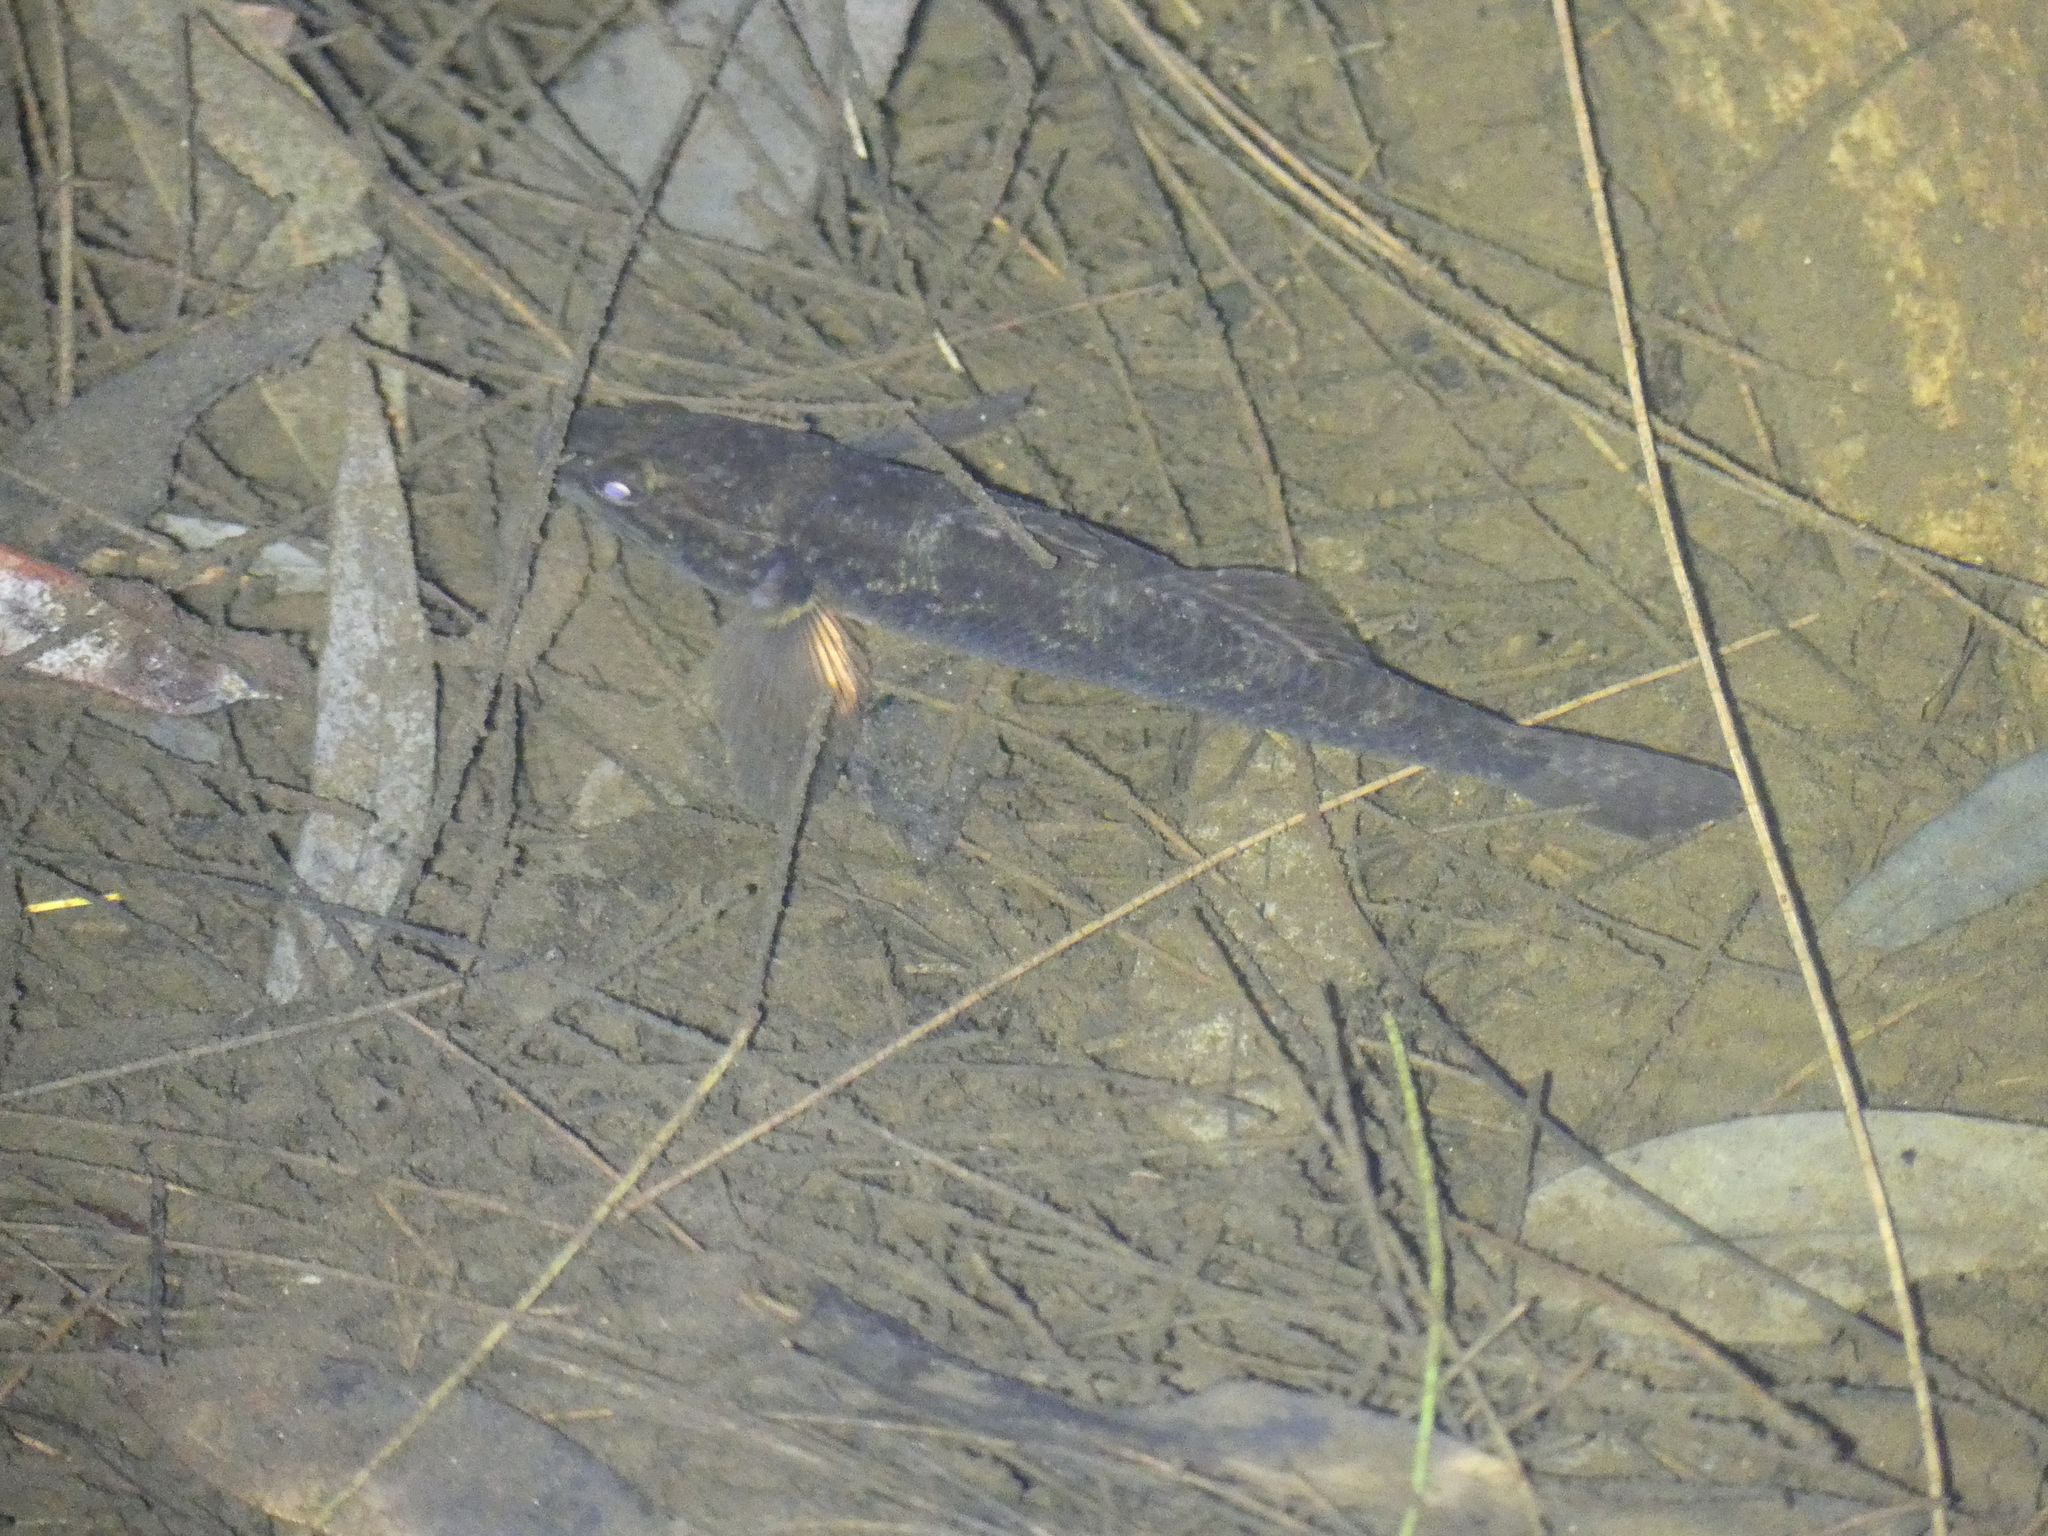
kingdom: Animalia
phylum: Chordata
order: Perciformes
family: Eleotridae
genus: Gobiomorphus
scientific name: Gobiomorphus coxii
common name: Cox's gudgeon
